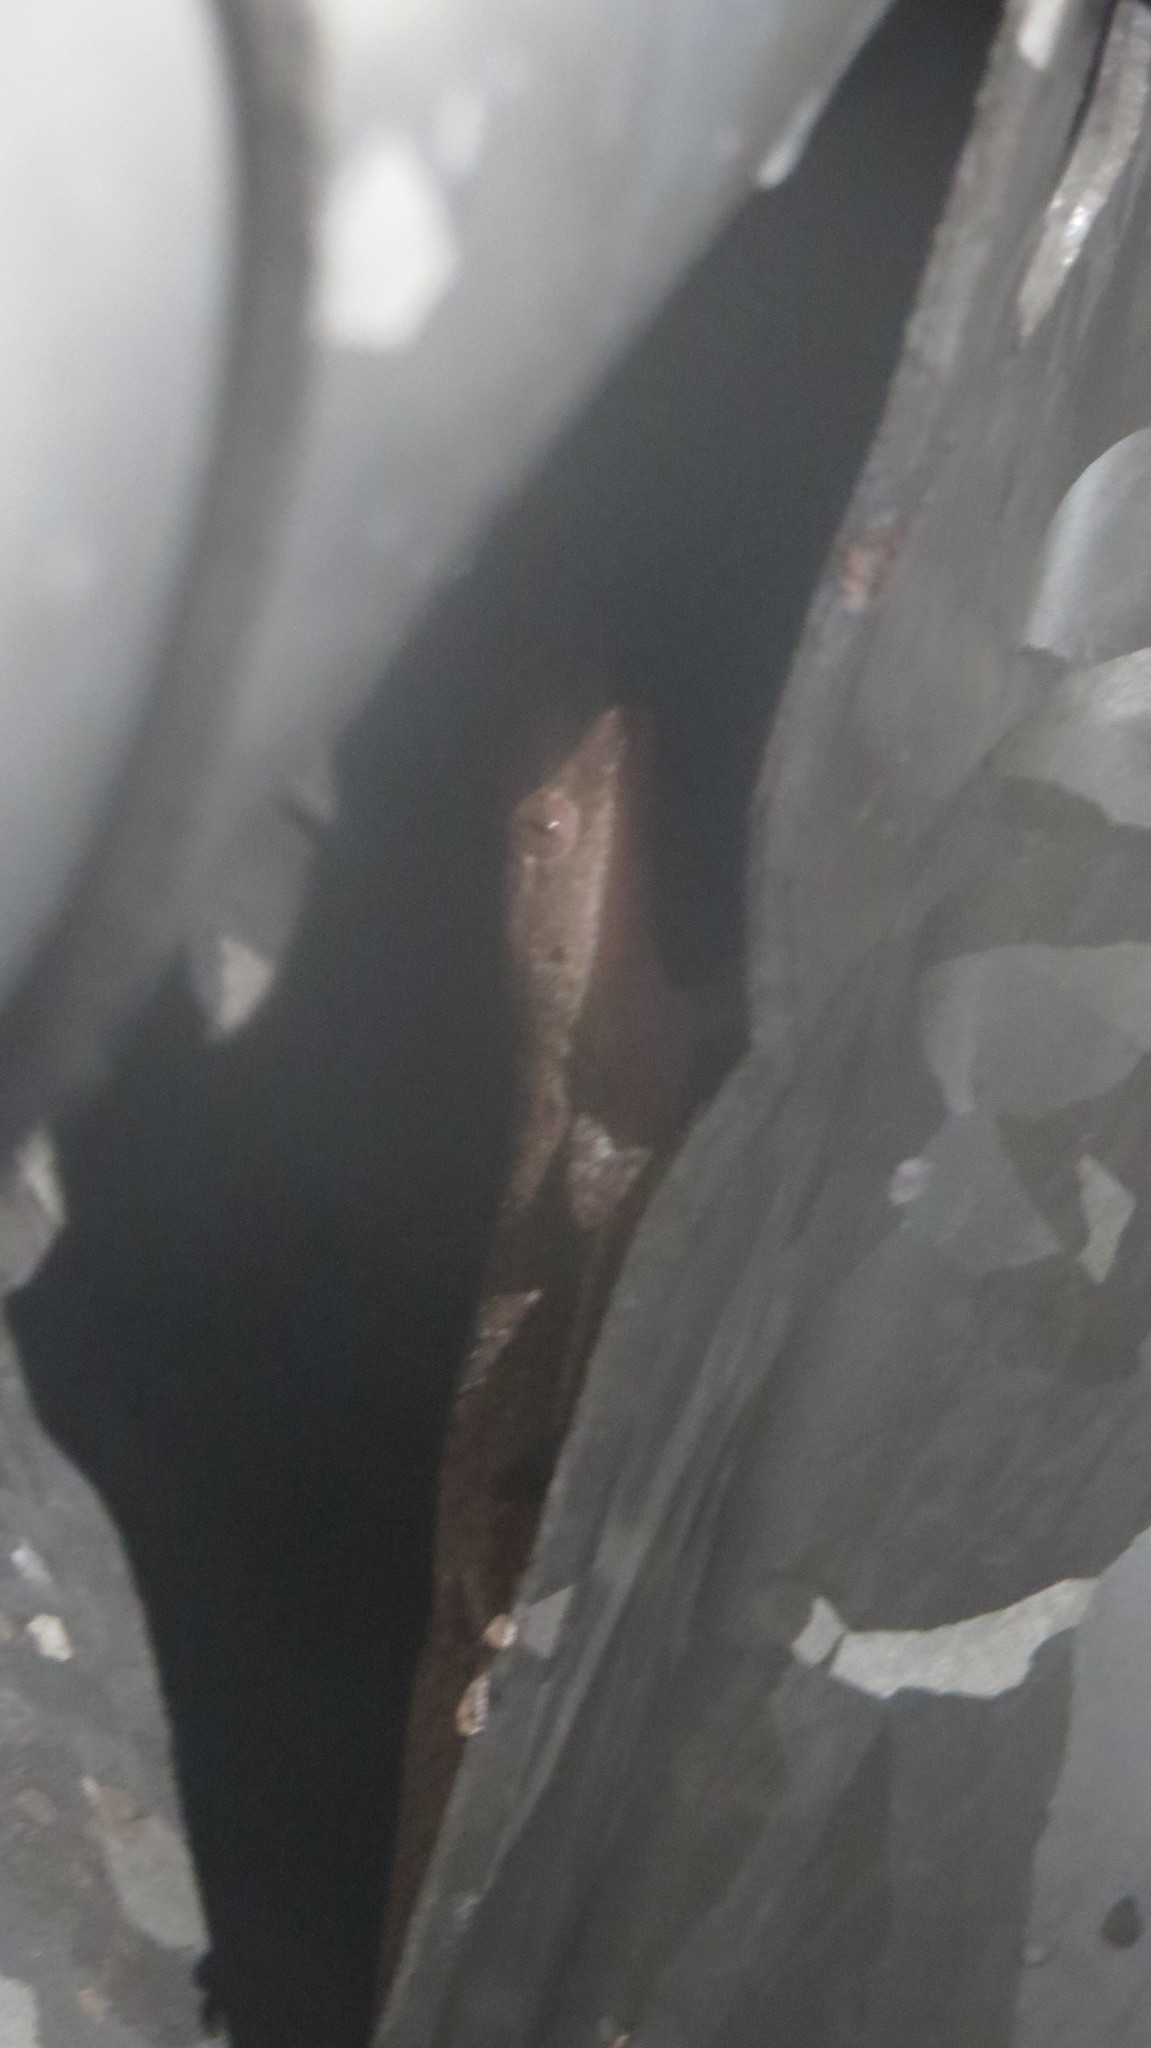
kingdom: Animalia
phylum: Chordata
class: Squamata
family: Gekkonidae
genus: Hemidactylus
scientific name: Hemidactylus frenatus
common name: Common house gecko
